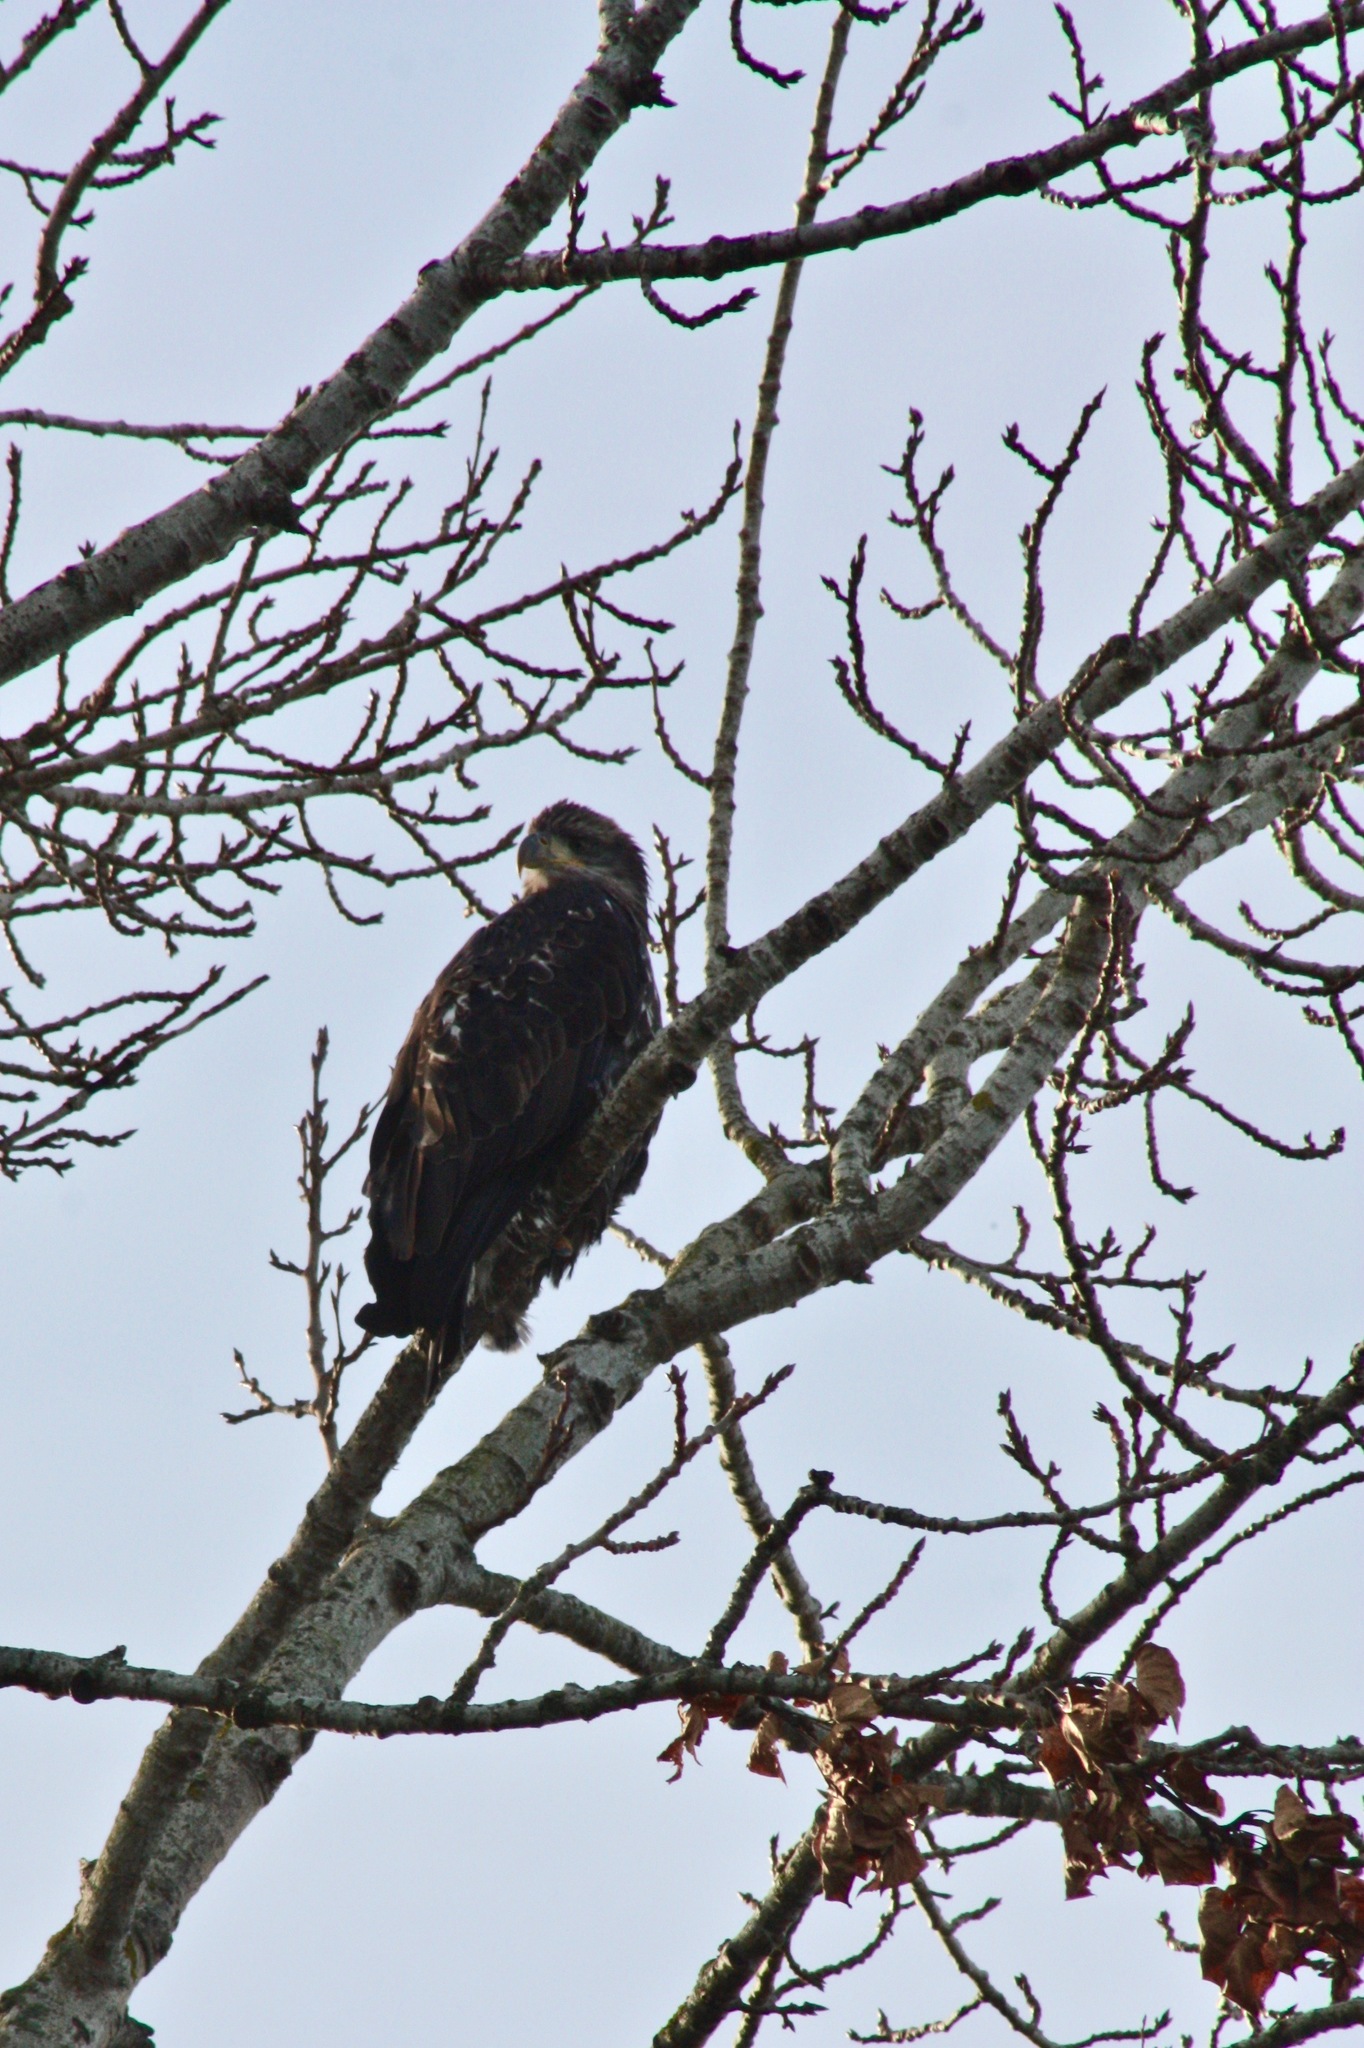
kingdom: Animalia
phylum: Chordata
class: Aves
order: Accipitriformes
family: Accipitridae
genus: Haliaeetus
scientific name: Haliaeetus leucocephalus
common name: Bald eagle
